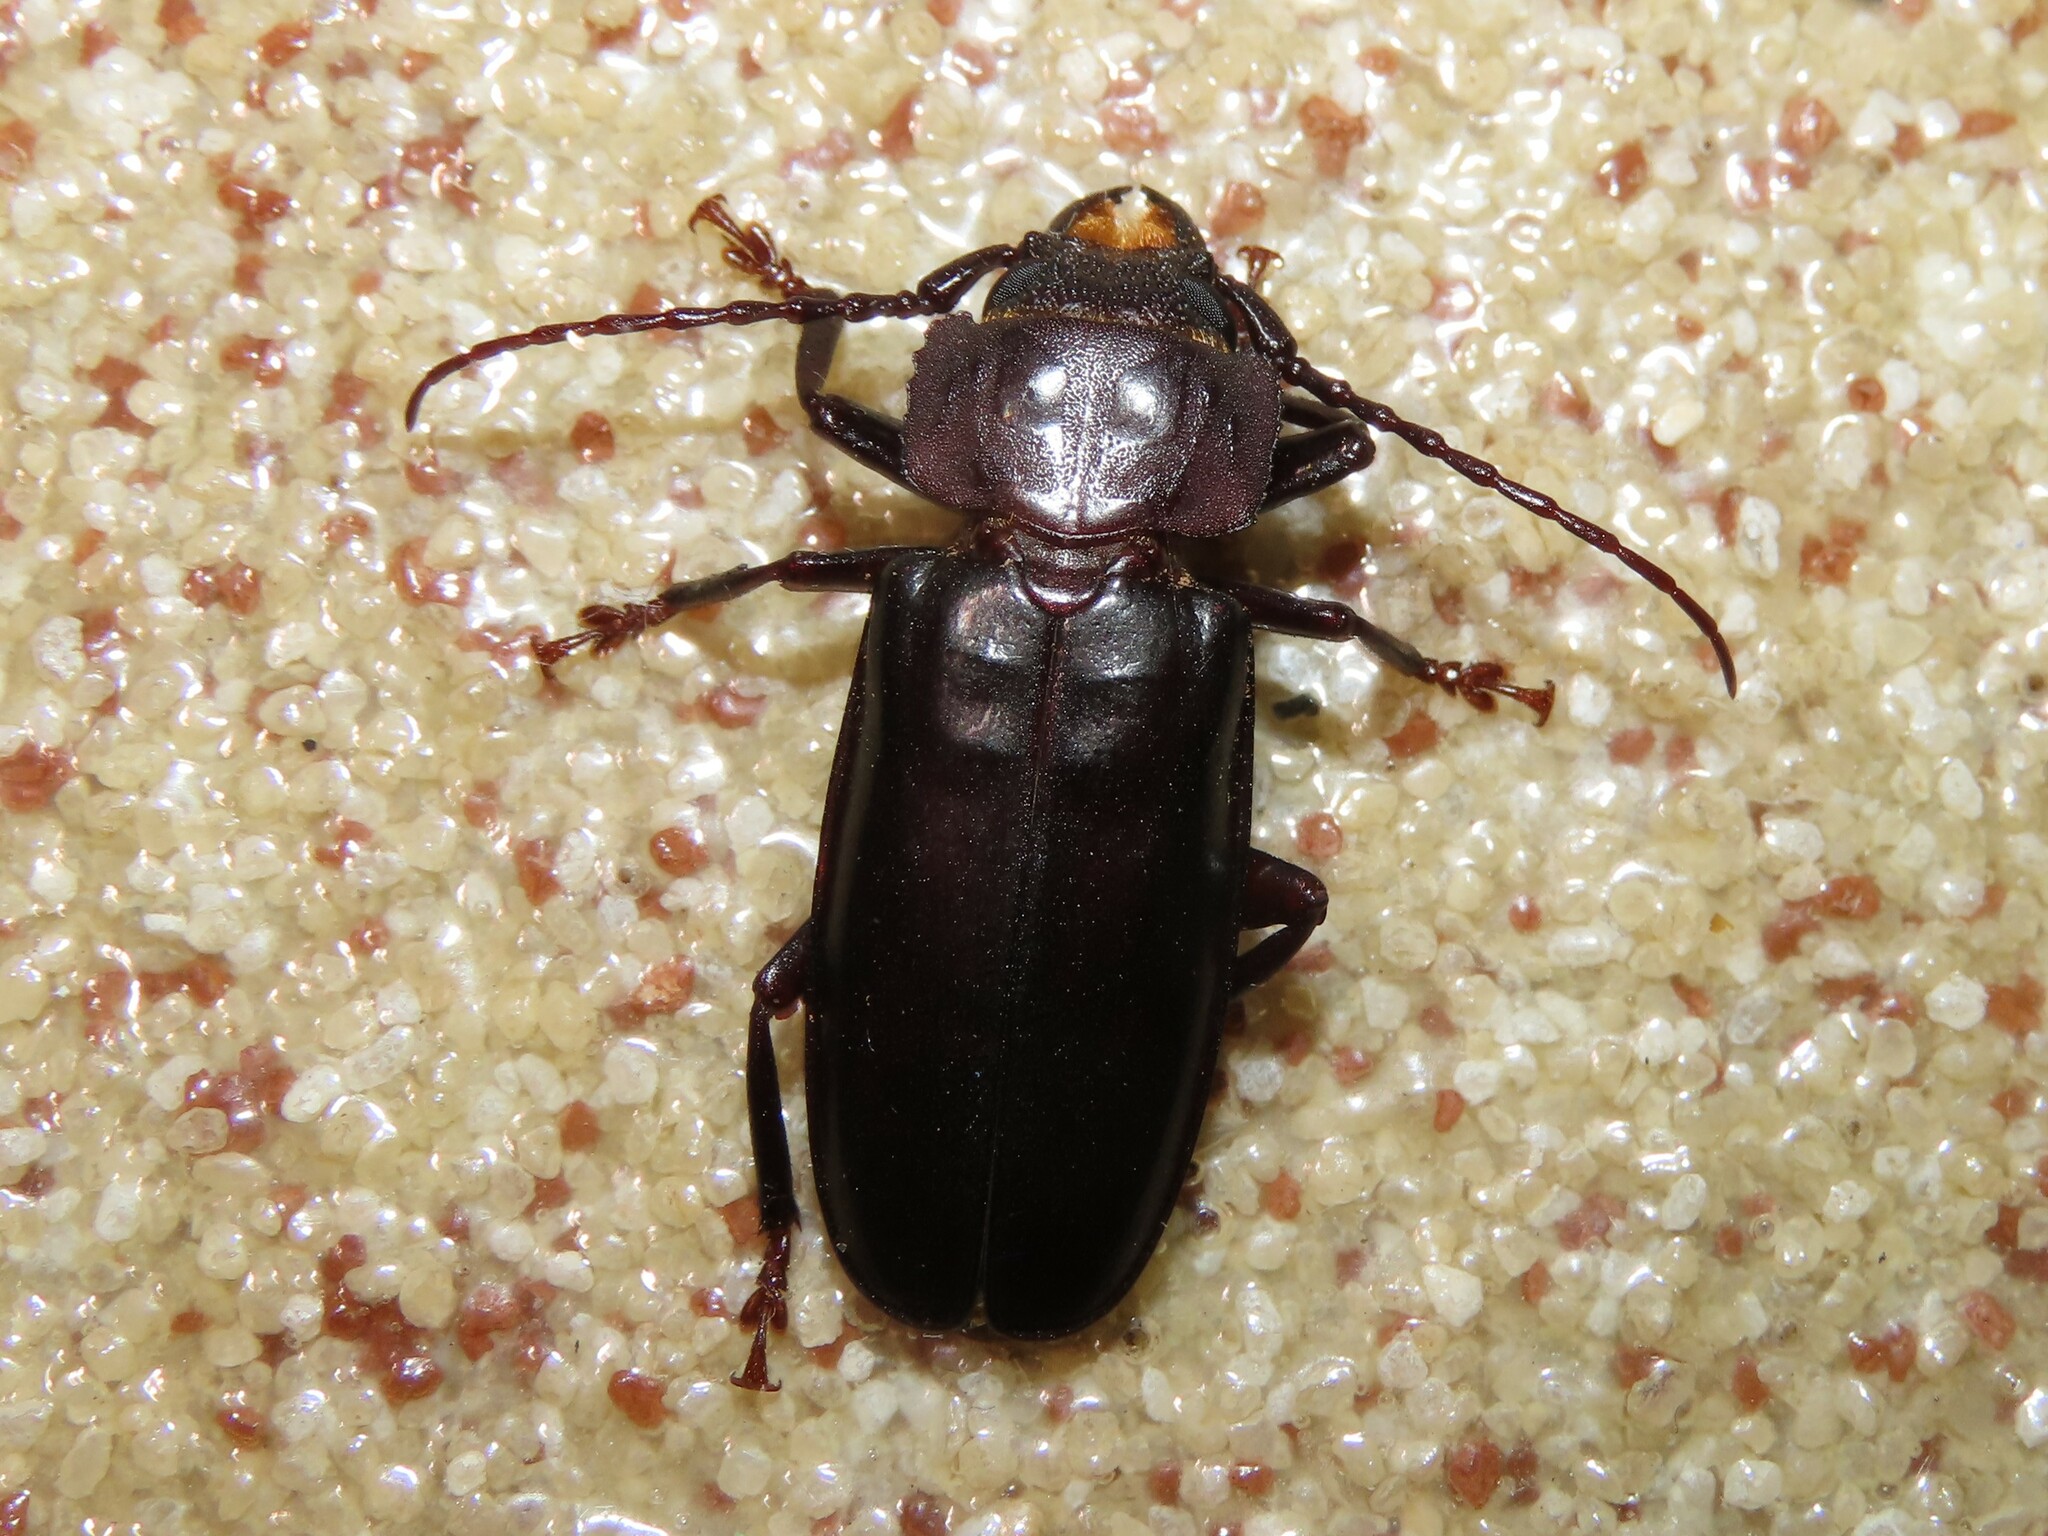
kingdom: Animalia
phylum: Arthropoda
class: Insecta
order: Coleoptera
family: Cerambycidae
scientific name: Cerambycidae
